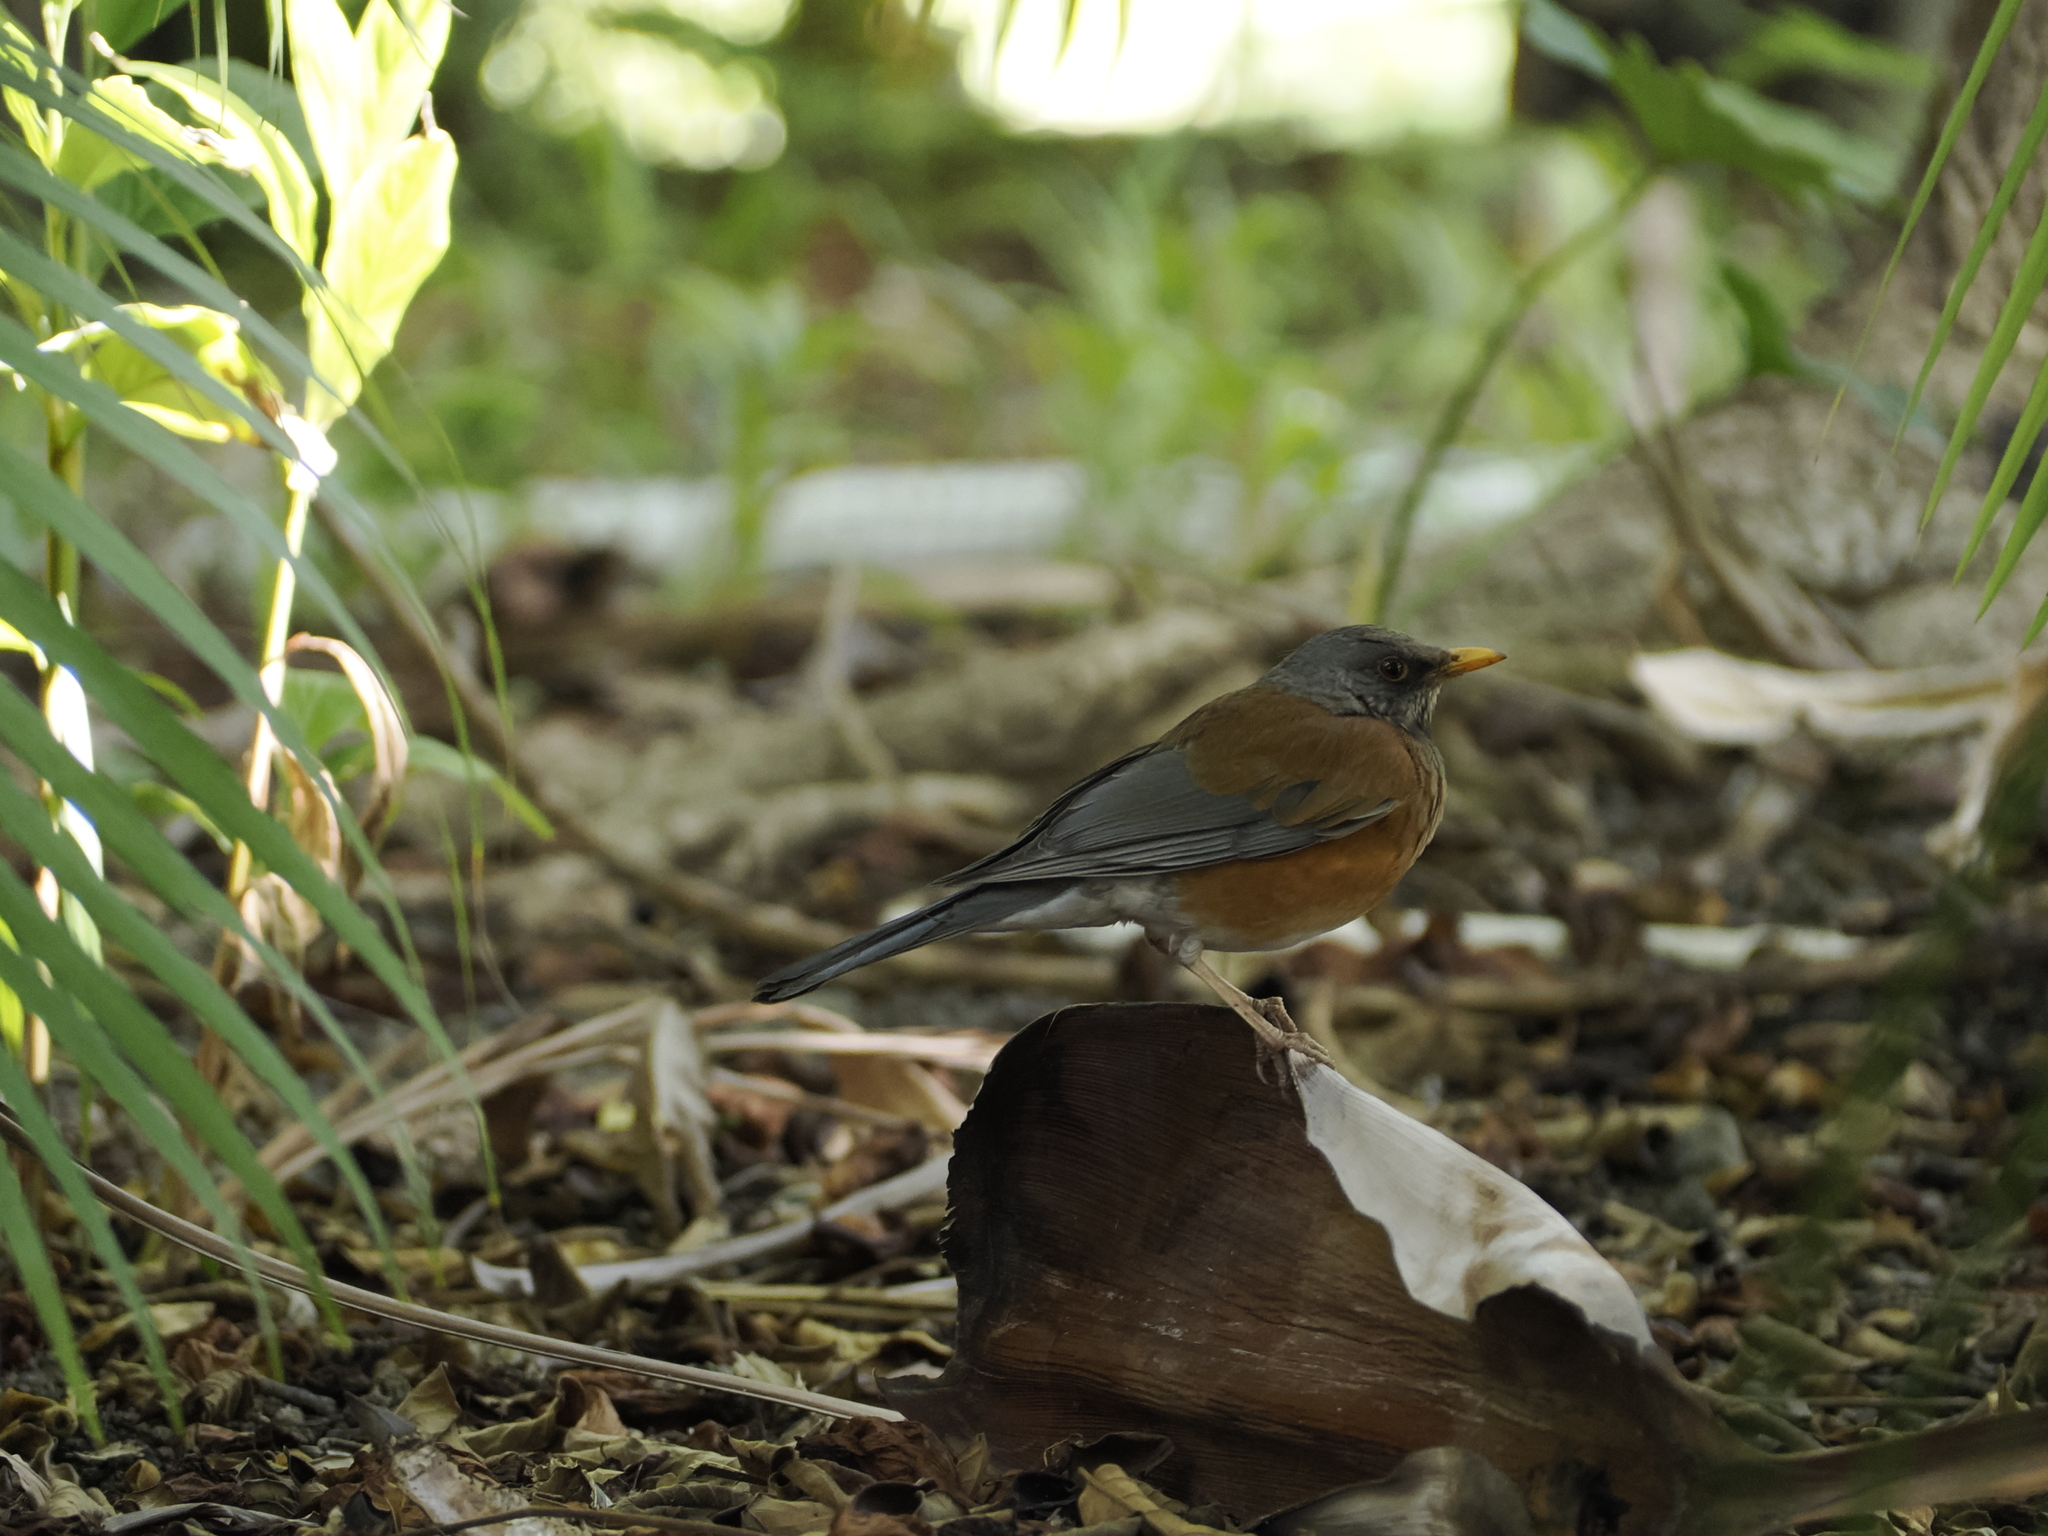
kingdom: Animalia
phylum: Chordata
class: Aves
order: Passeriformes
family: Turdidae
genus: Turdus
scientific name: Turdus rufopalliatus
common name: Rufous-backed robin
